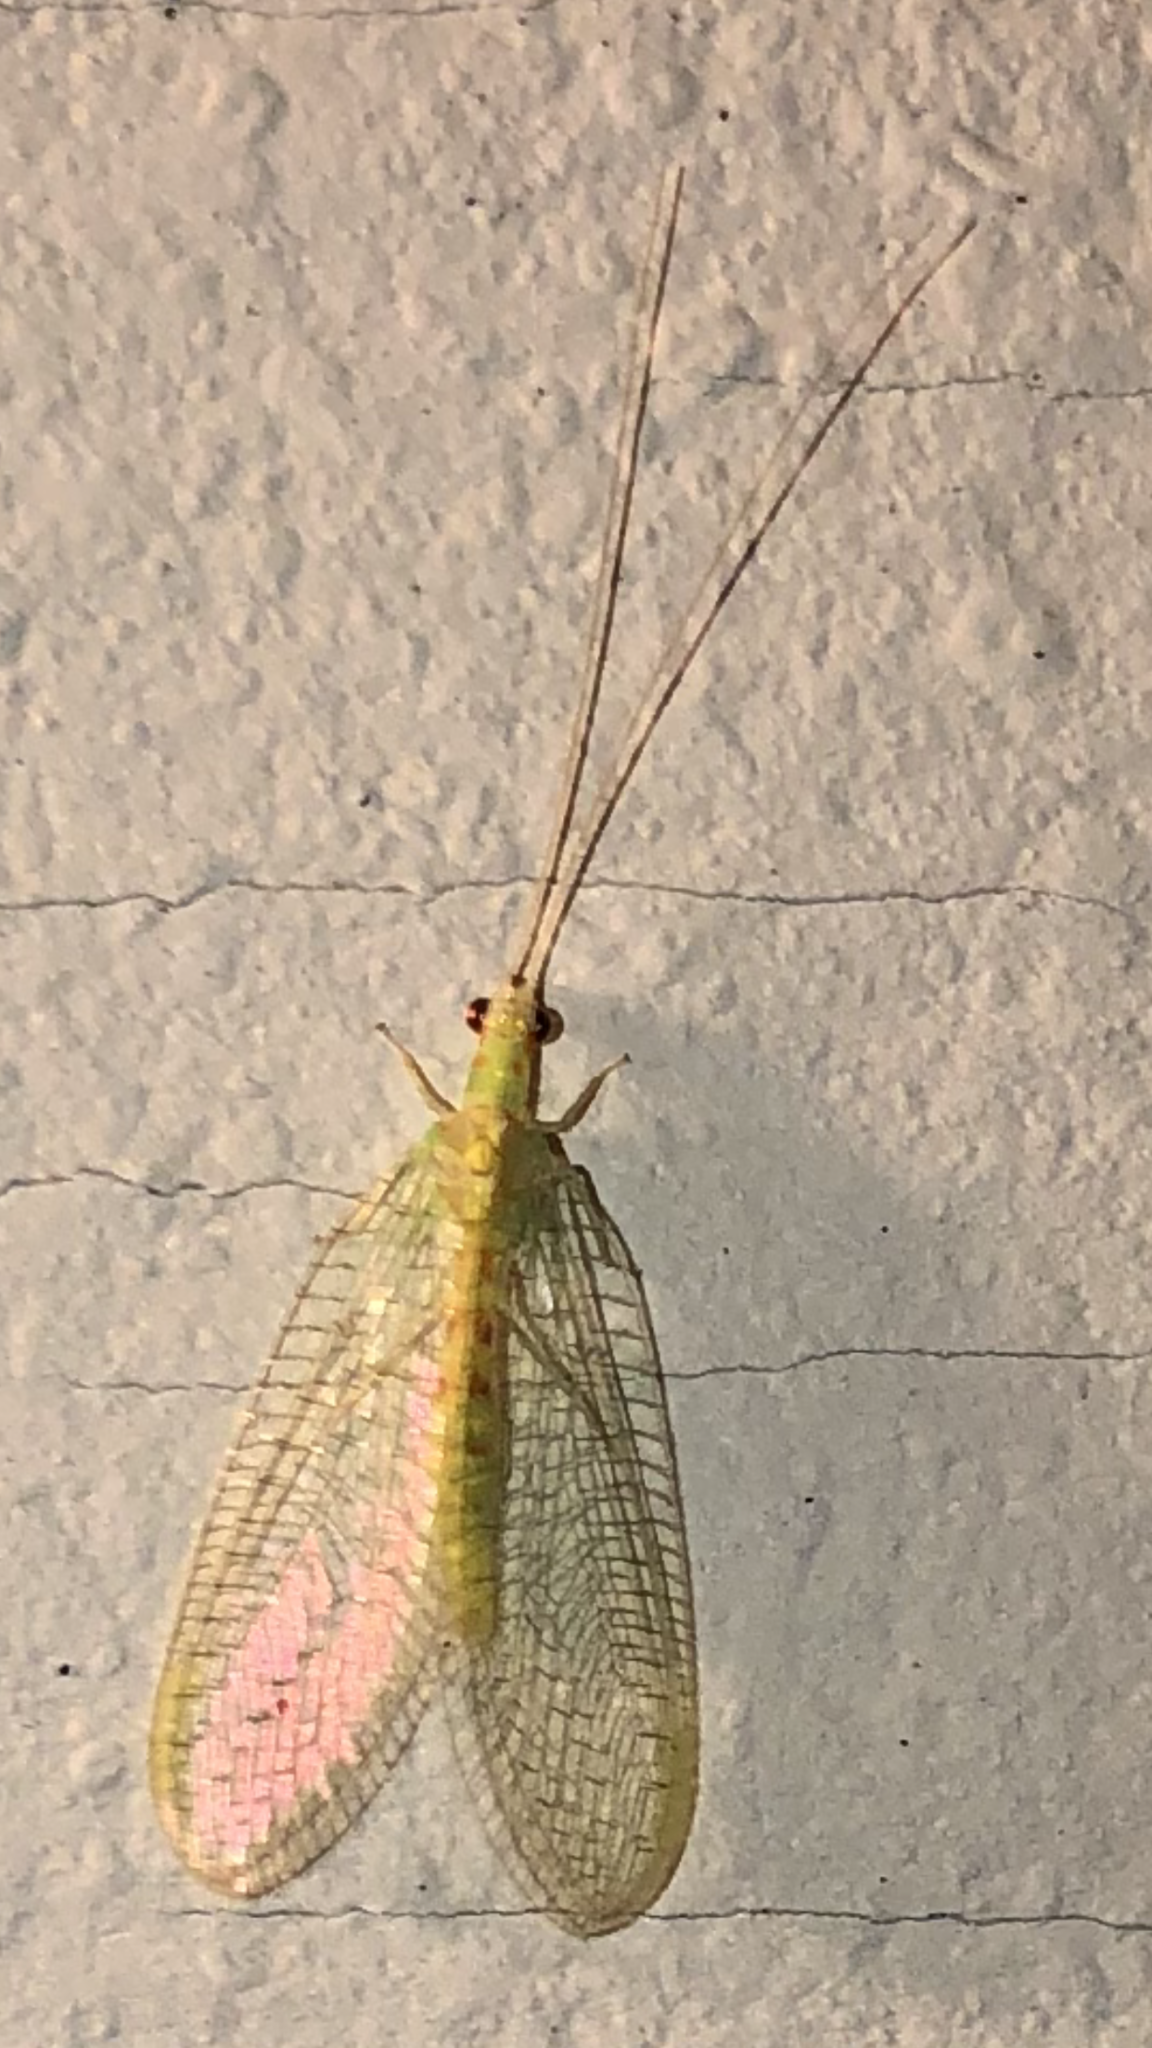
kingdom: Animalia
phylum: Arthropoda
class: Insecta
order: Neuroptera
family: Chrysopidae
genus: Chrysopa
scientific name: Chrysopa quadripunctata
